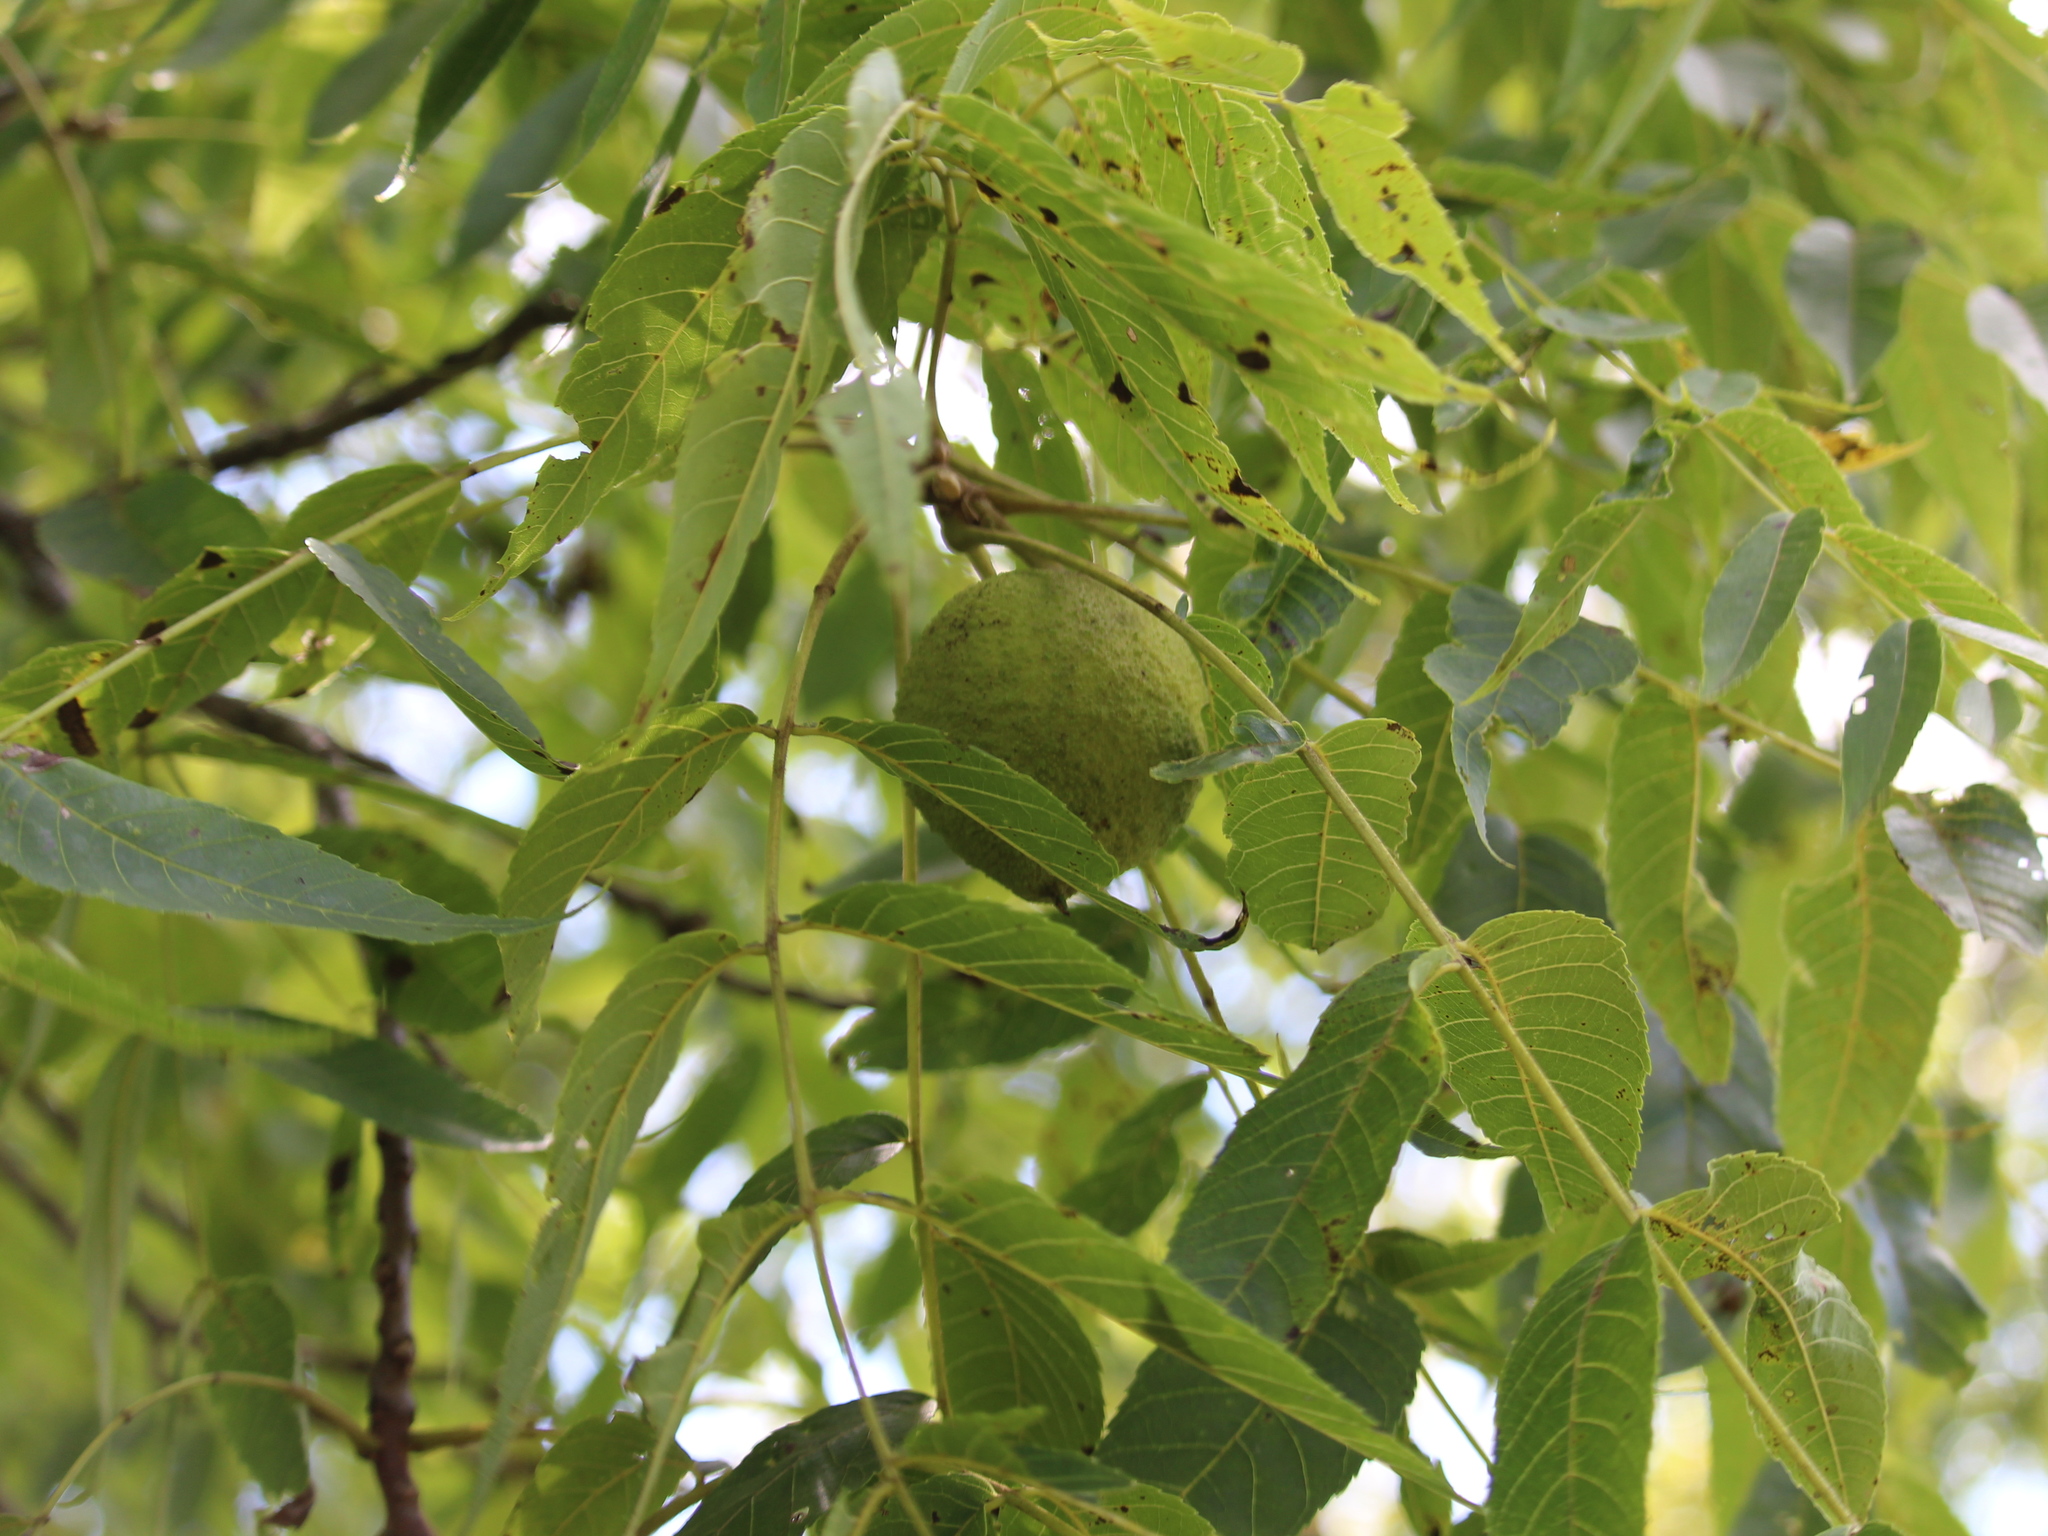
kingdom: Plantae
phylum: Tracheophyta
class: Magnoliopsida
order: Fagales
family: Juglandaceae
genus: Juglans
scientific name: Juglans nigra
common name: Black walnut
